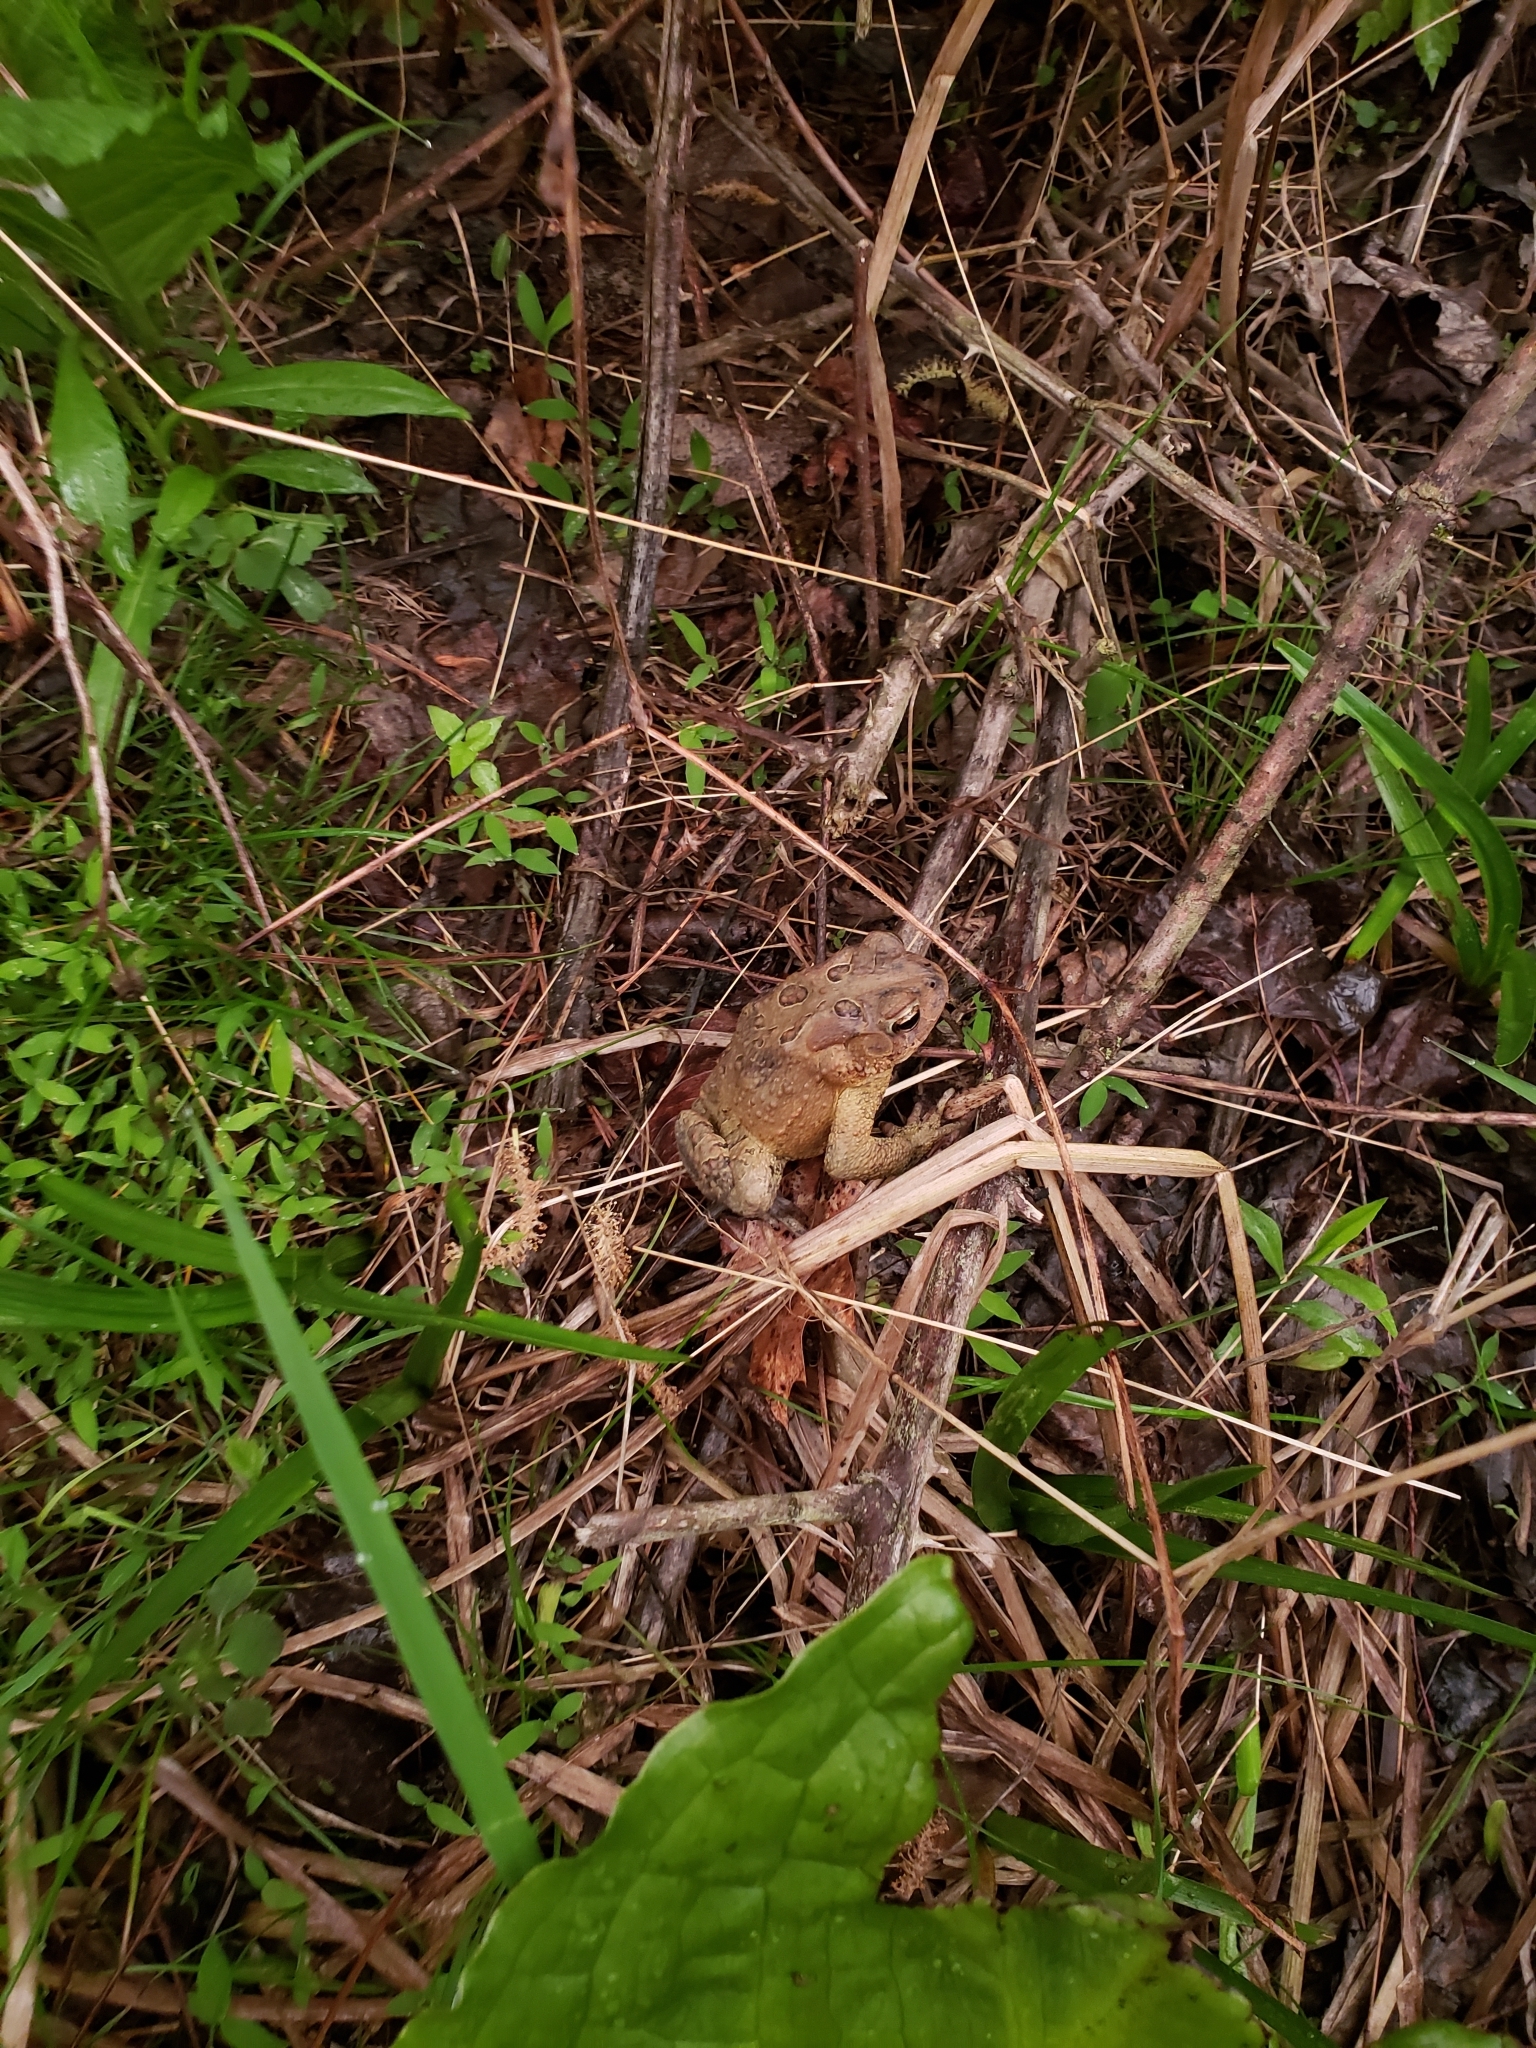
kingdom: Animalia
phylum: Chordata
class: Amphibia
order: Anura
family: Bufonidae
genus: Anaxyrus
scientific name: Anaxyrus americanus
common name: American toad
